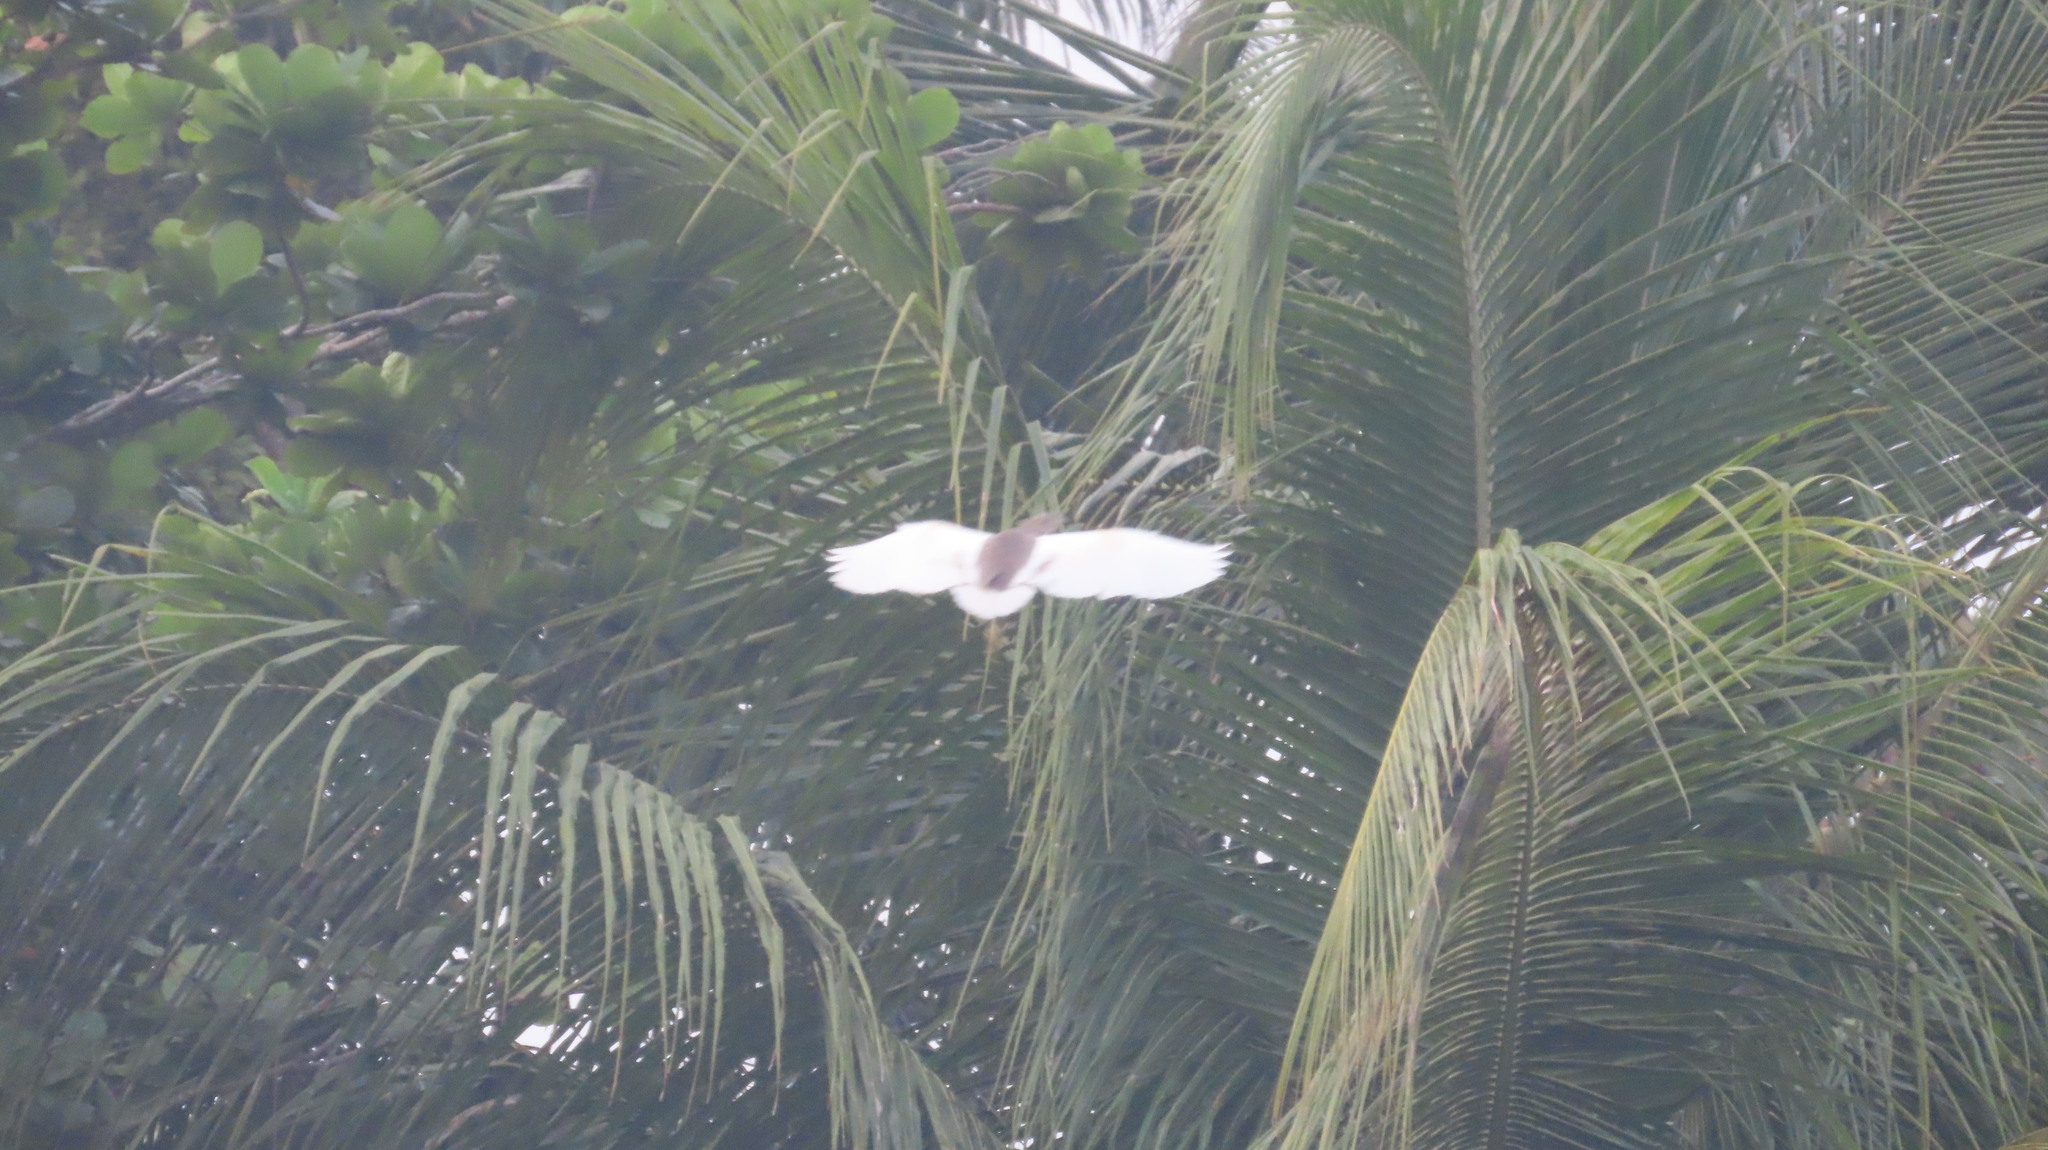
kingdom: Animalia
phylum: Chordata
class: Aves
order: Pelecaniformes
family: Ardeidae
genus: Ardeola
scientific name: Ardeola grayii
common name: Indian pond heron
